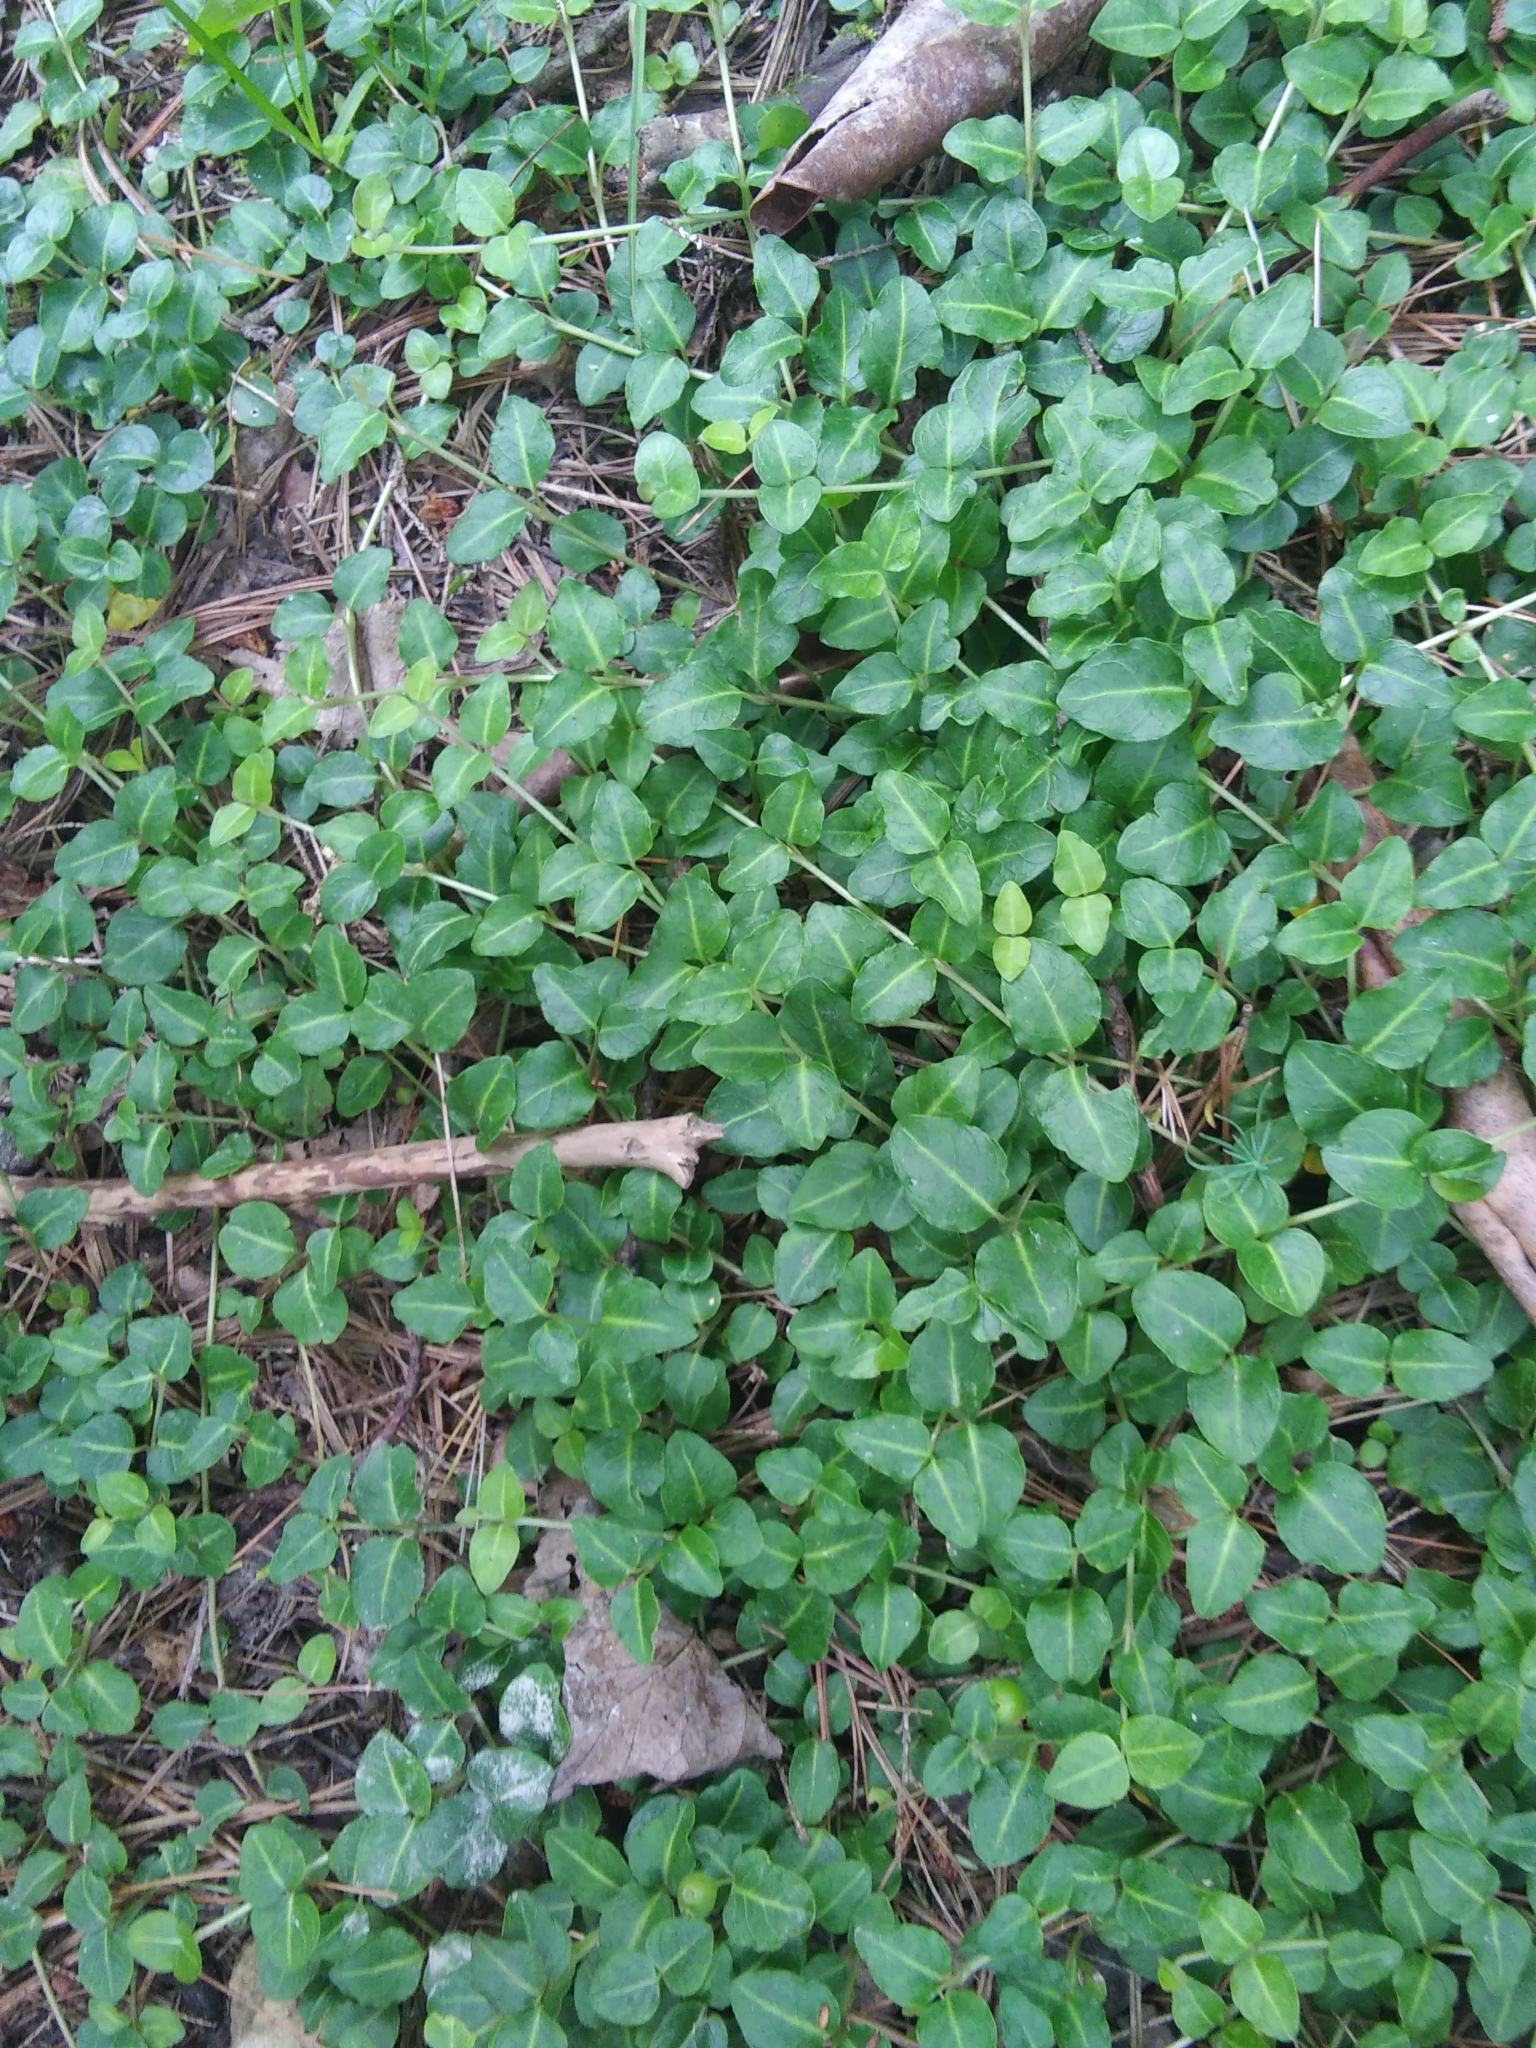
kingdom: Plantae
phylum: Tracheophyta
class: Magnoliopsida
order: Gentianales
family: Rubiaceae
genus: Mitchella
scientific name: Mitchella repens
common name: Partridge-berry
